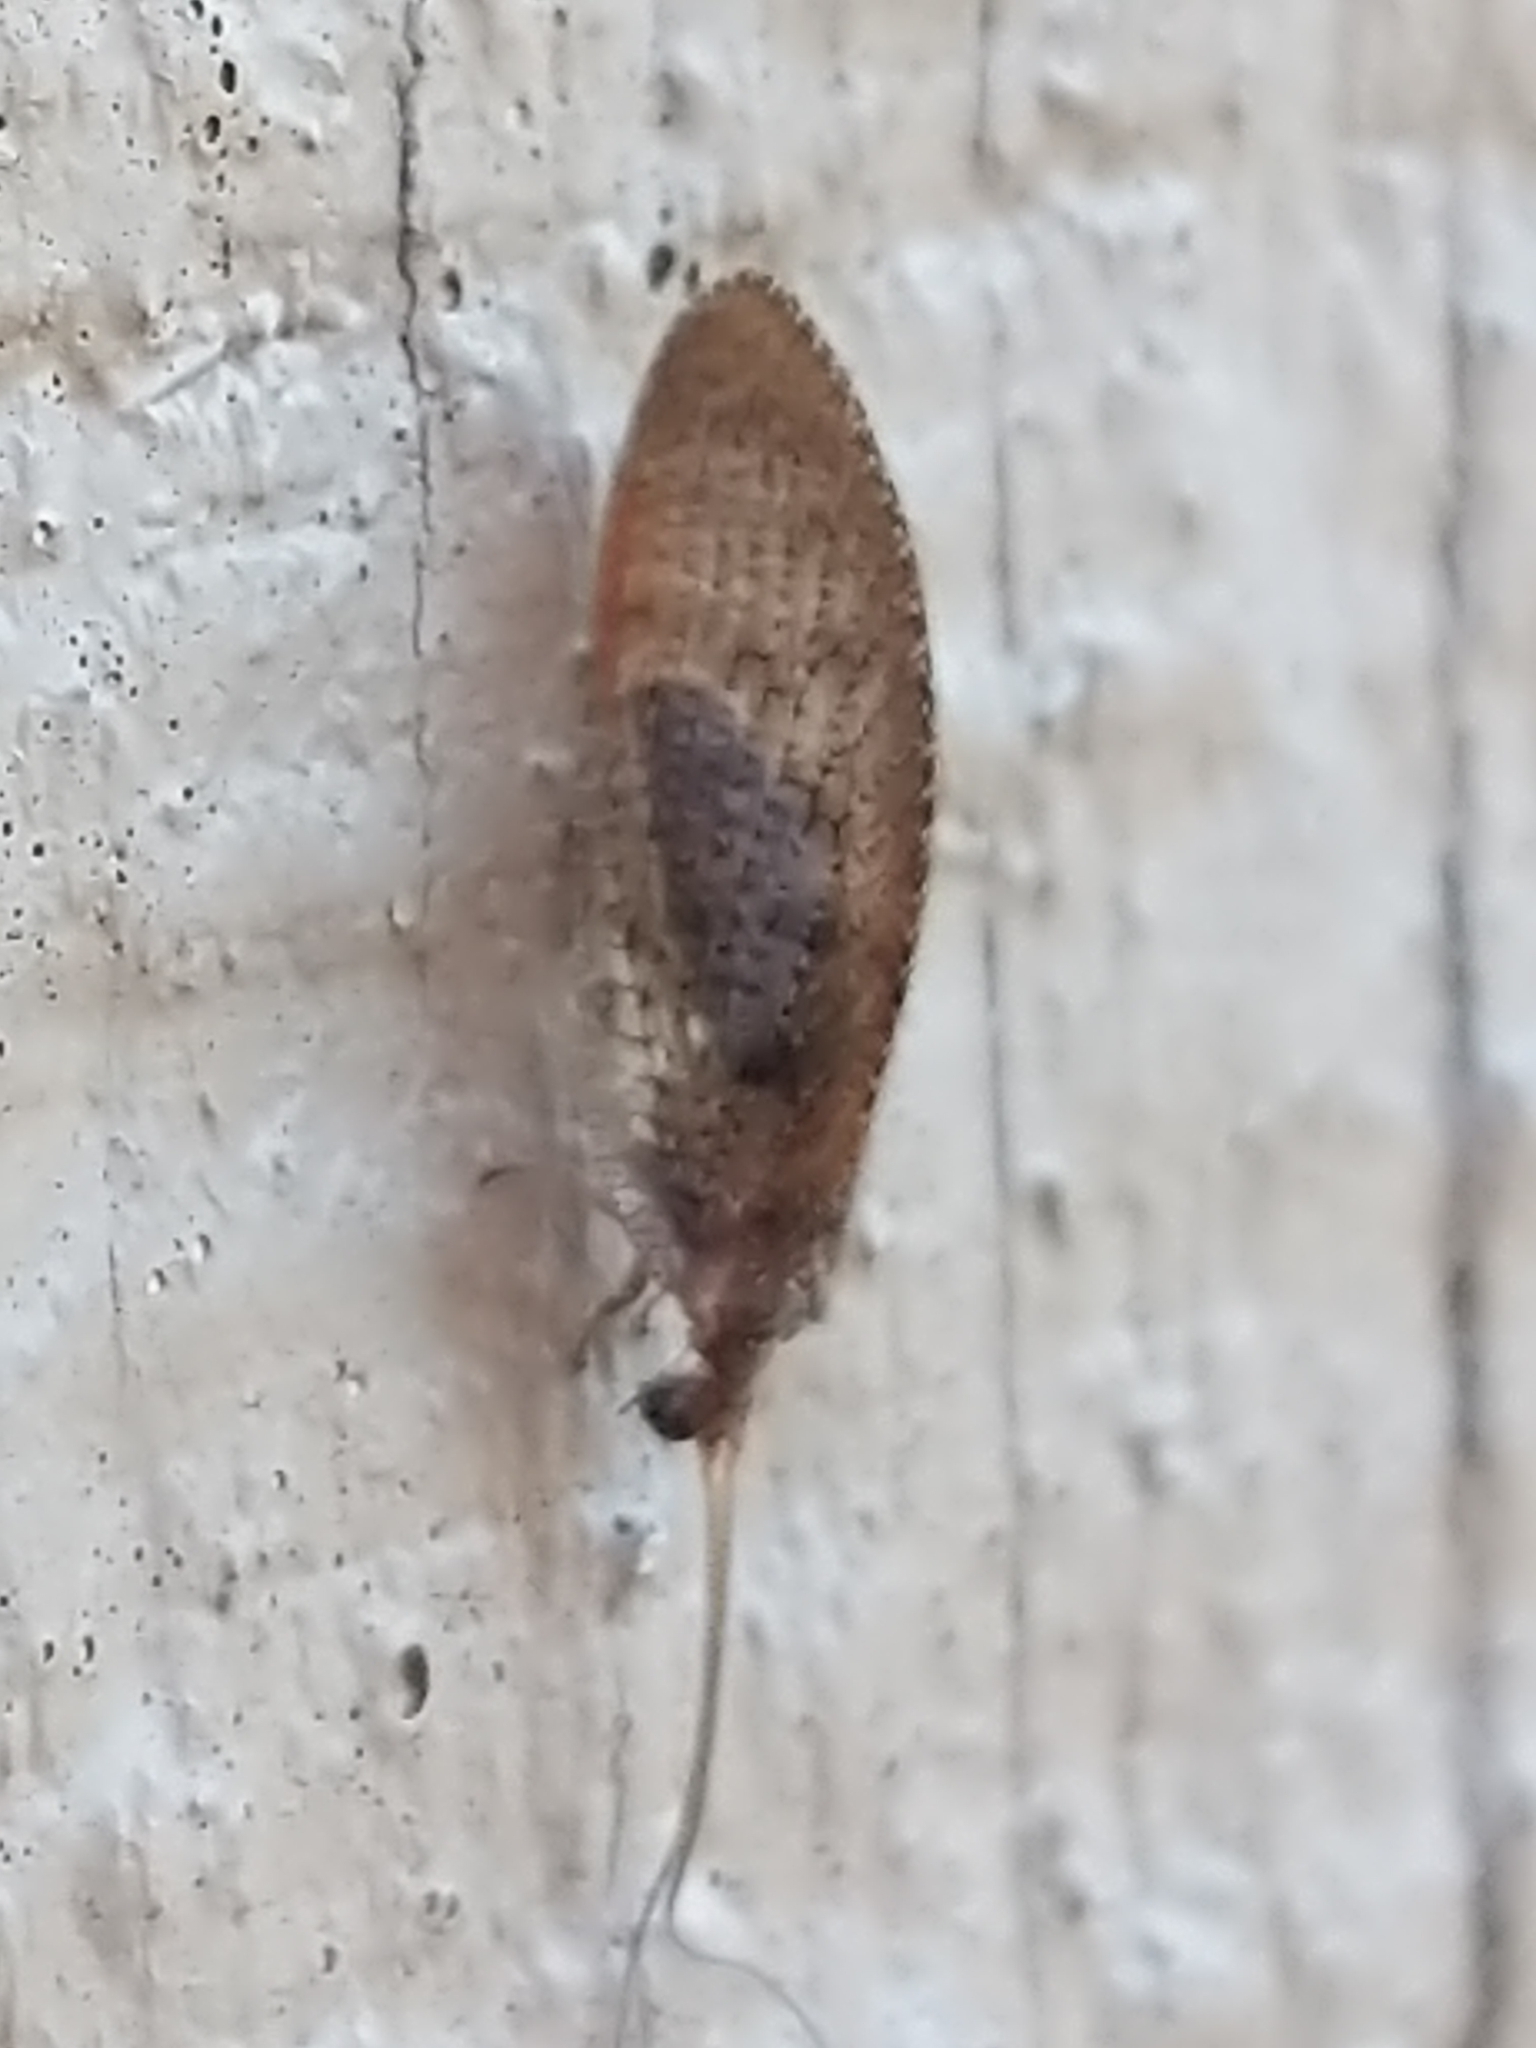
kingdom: Animalia
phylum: Arthropoda
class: Insecta
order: Neuroptera
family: Hemerobiidae
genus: Hemerobius
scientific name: Hemerobius stigma
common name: Brown pine lacewing
